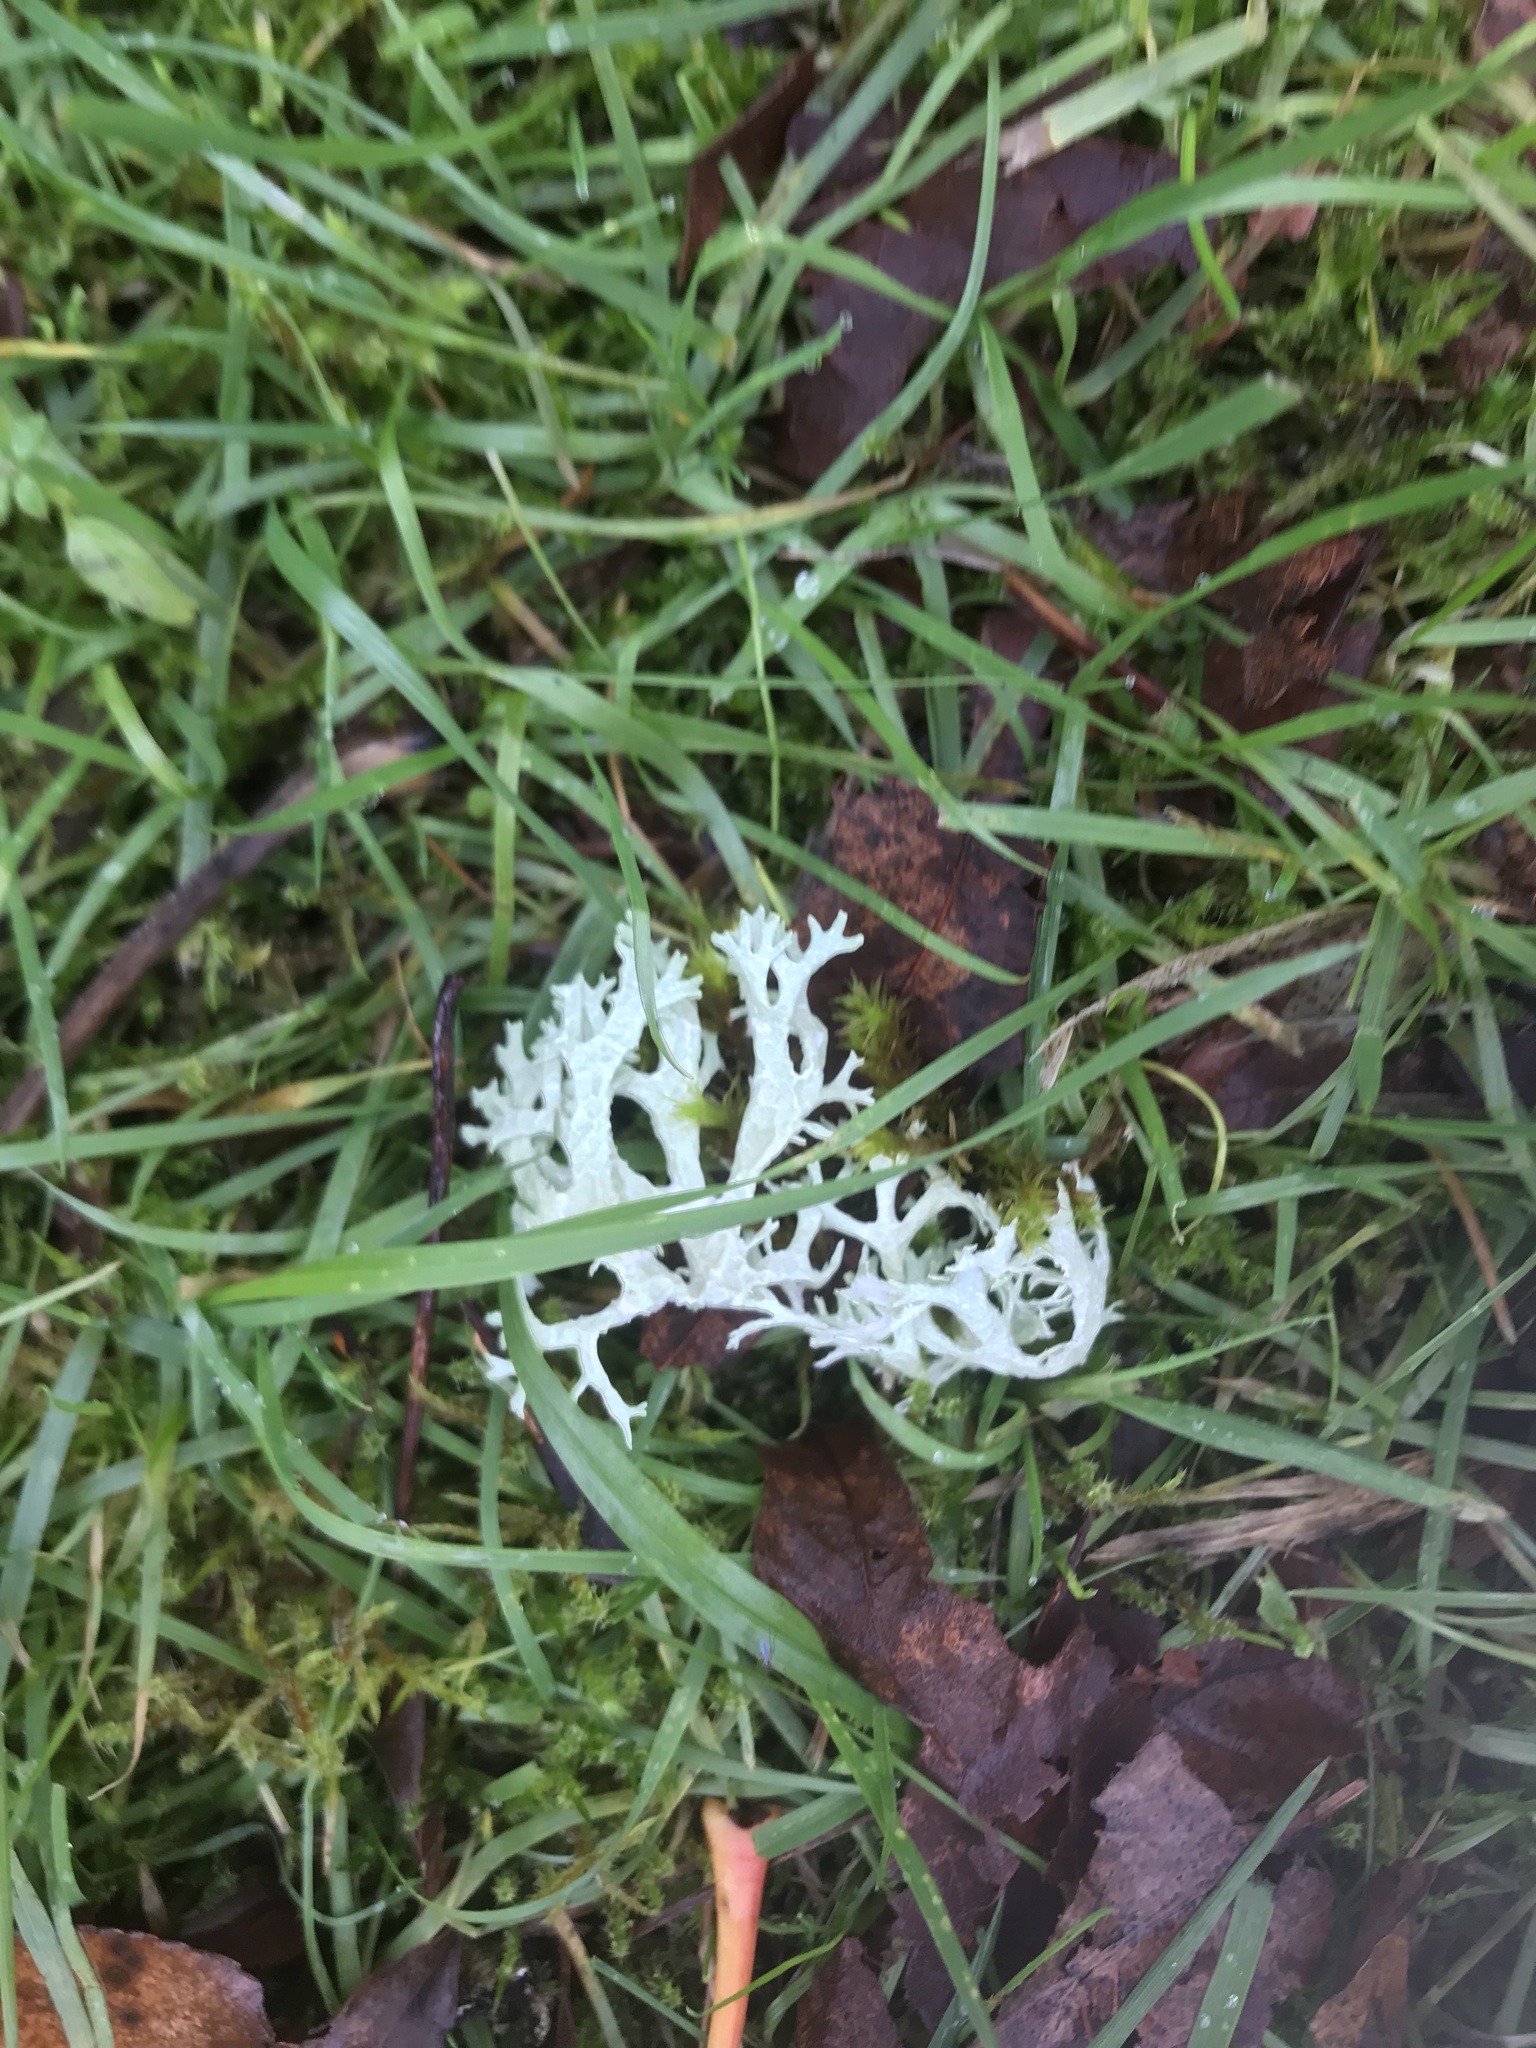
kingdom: Fungi
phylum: Ascomycota
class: Lecanoromycetes
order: Lecanorales
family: Parmeliaceae
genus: Evernia
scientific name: Evernia prunastri
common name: Oak moss
